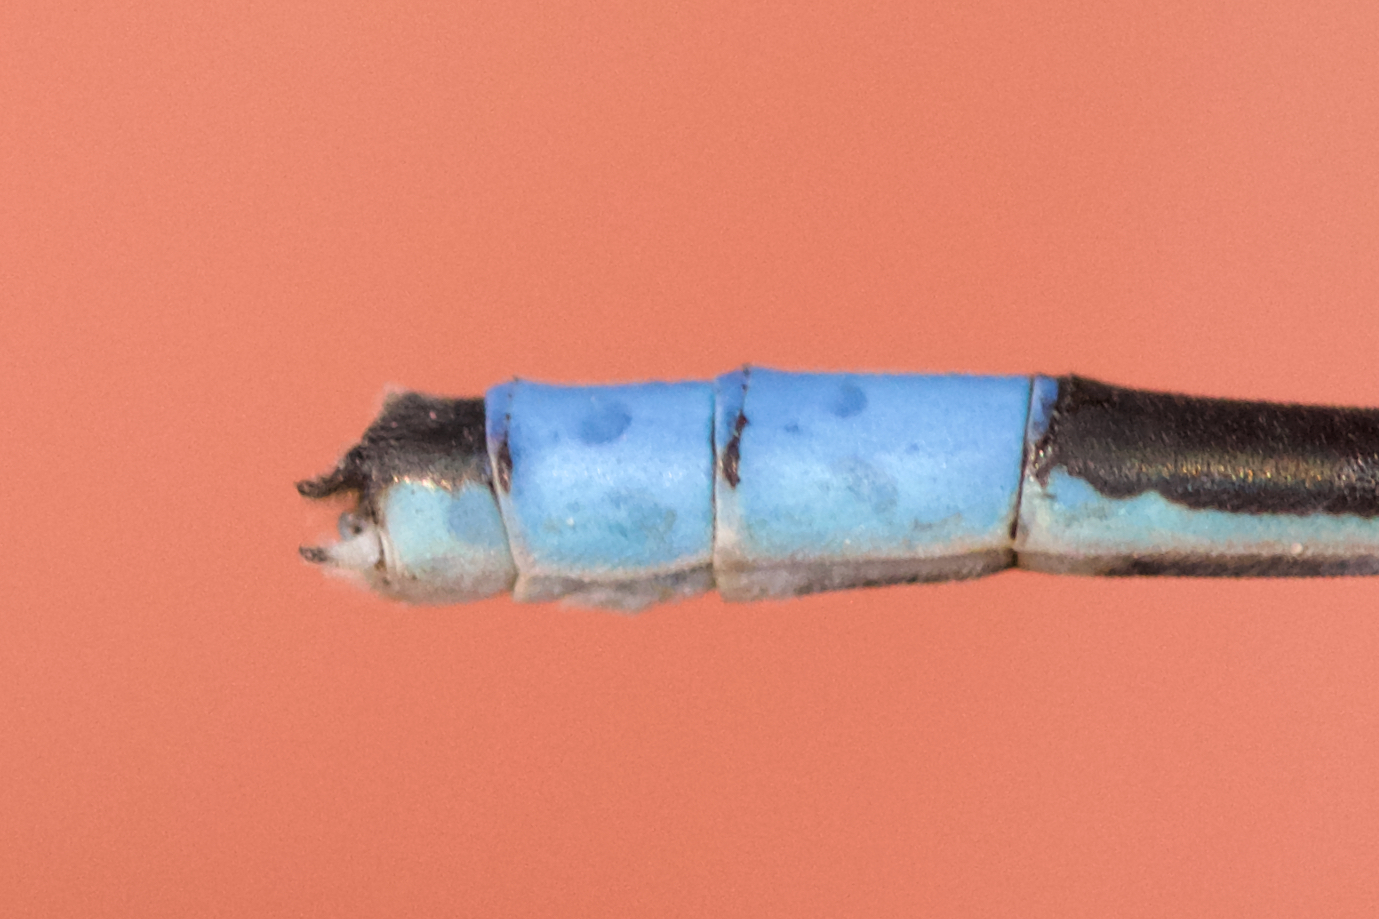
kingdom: Animalia
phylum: Arthropoda
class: Insecta
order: Odonata
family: Coenagrionidae
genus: Enallagma
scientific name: Enallagma hageni
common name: Hagen's bluet
